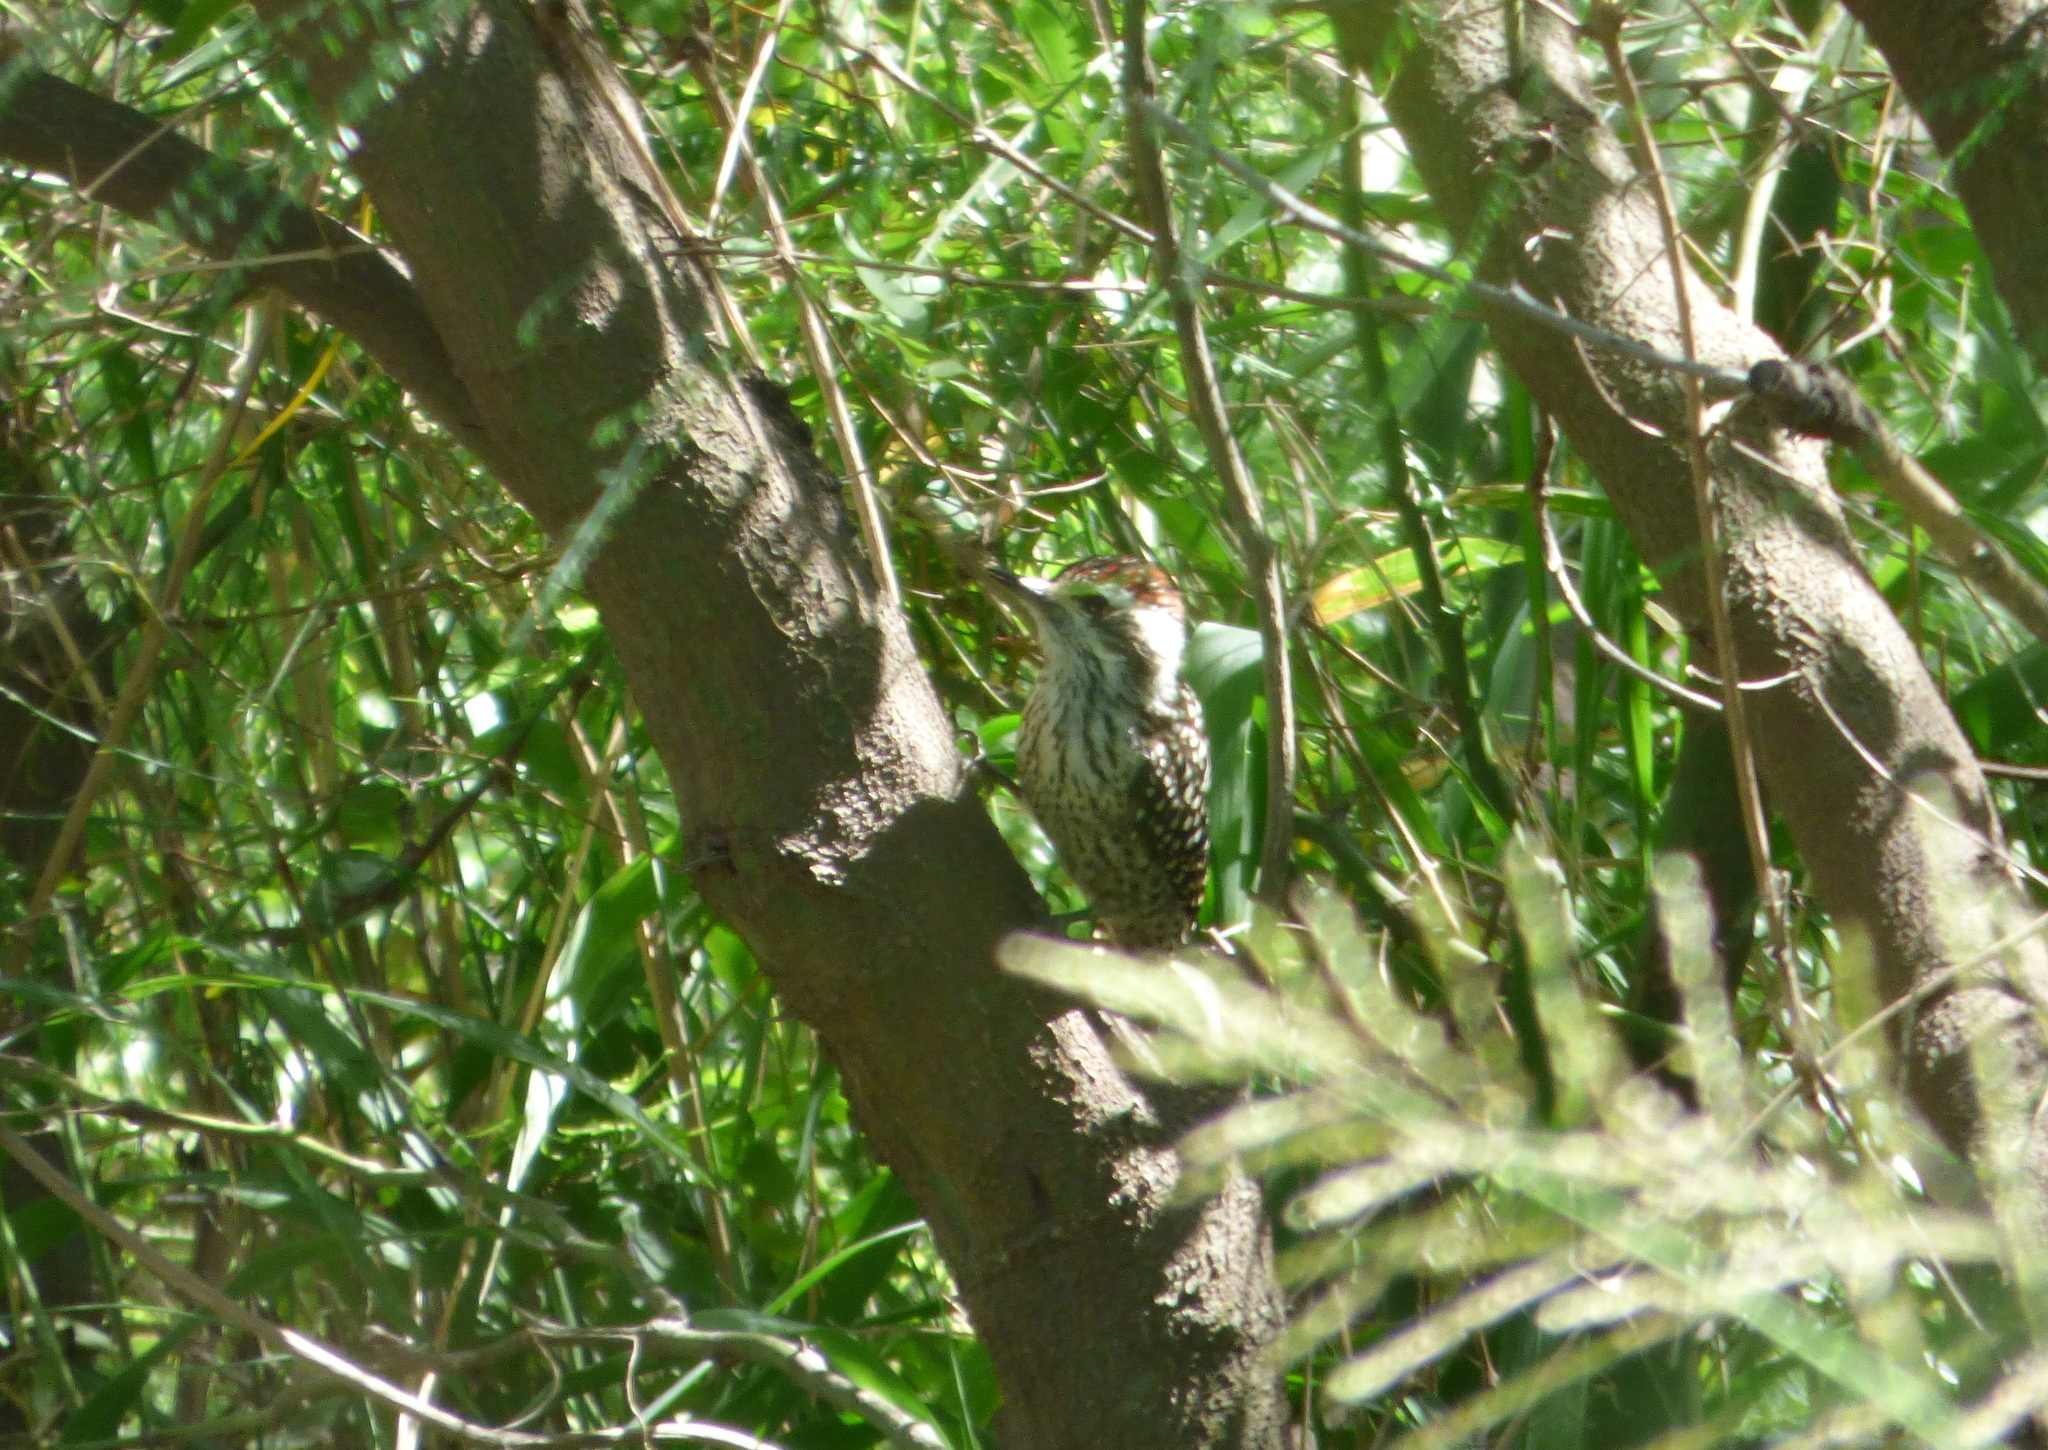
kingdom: Animalia
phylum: Chordata
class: Aves
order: Piciformes
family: Picidae
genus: Veniliornis
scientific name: Veniliornis mixtus
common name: Checkered woodpecker
